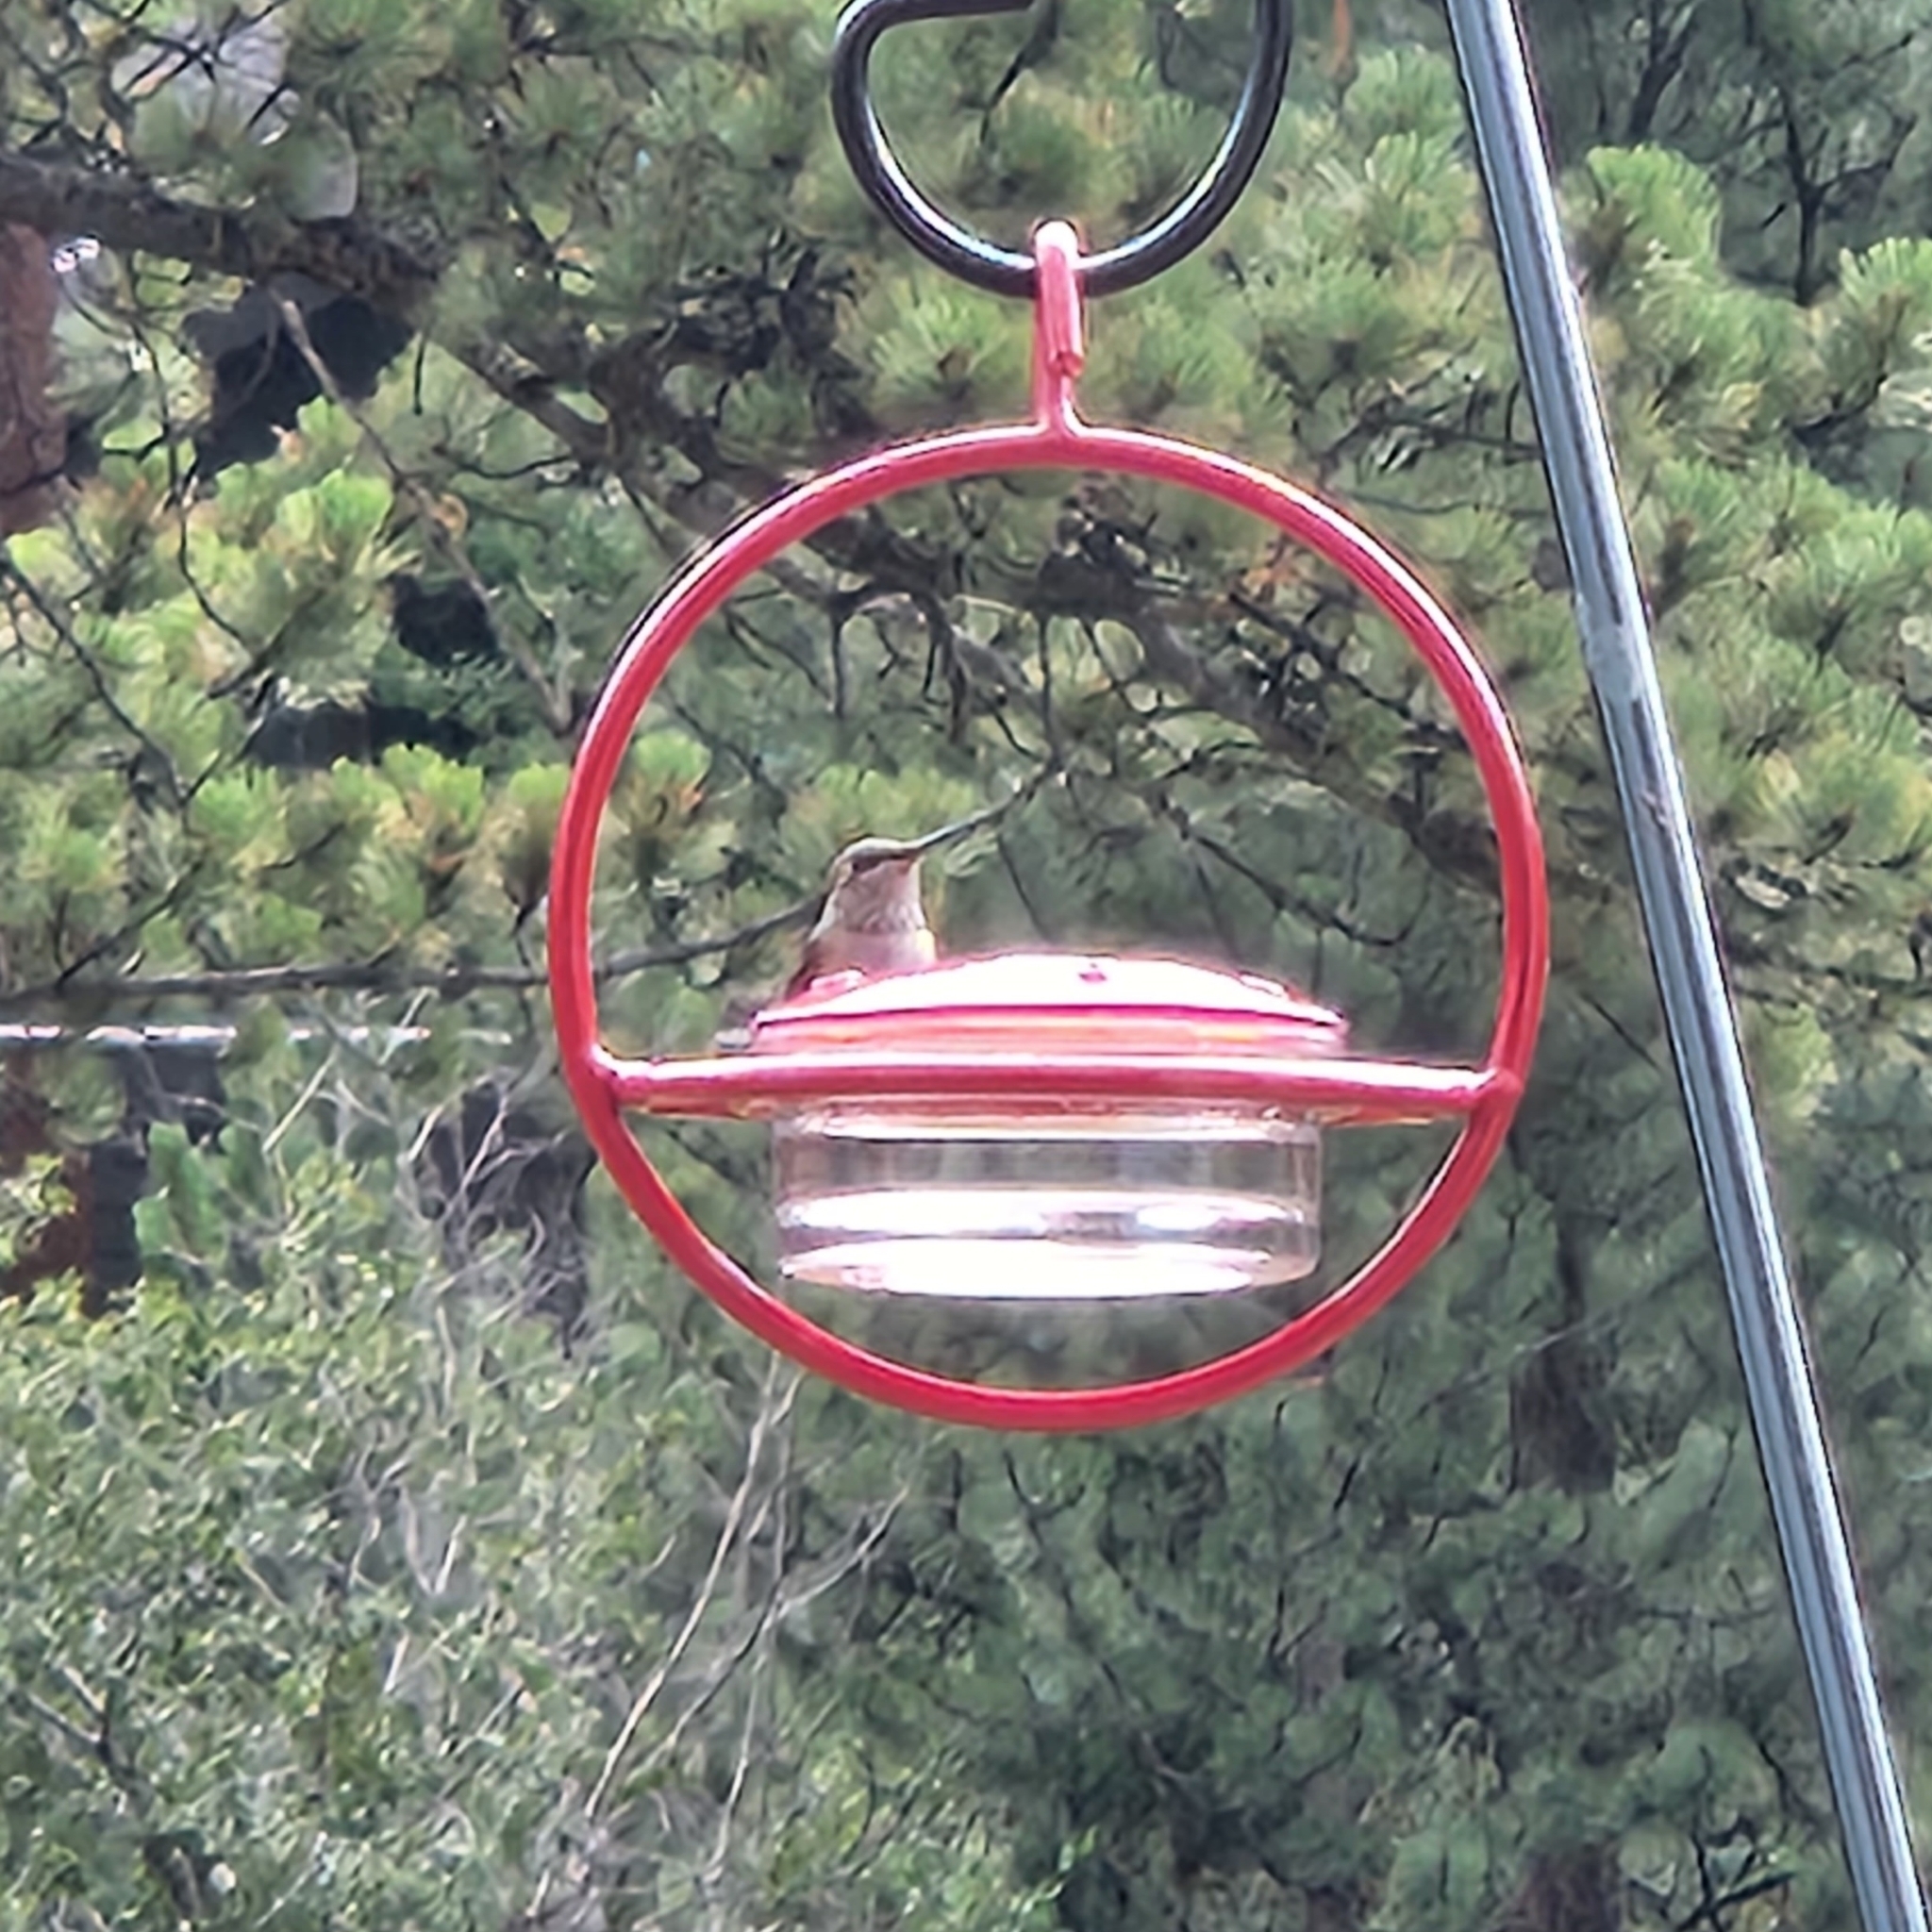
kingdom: Animalia
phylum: Chordata
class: Aves
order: Apodiformes
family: Trochilidae
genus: Selasphorus
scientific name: Selasphorus platycercus
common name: Broad-tailed hummingbird
